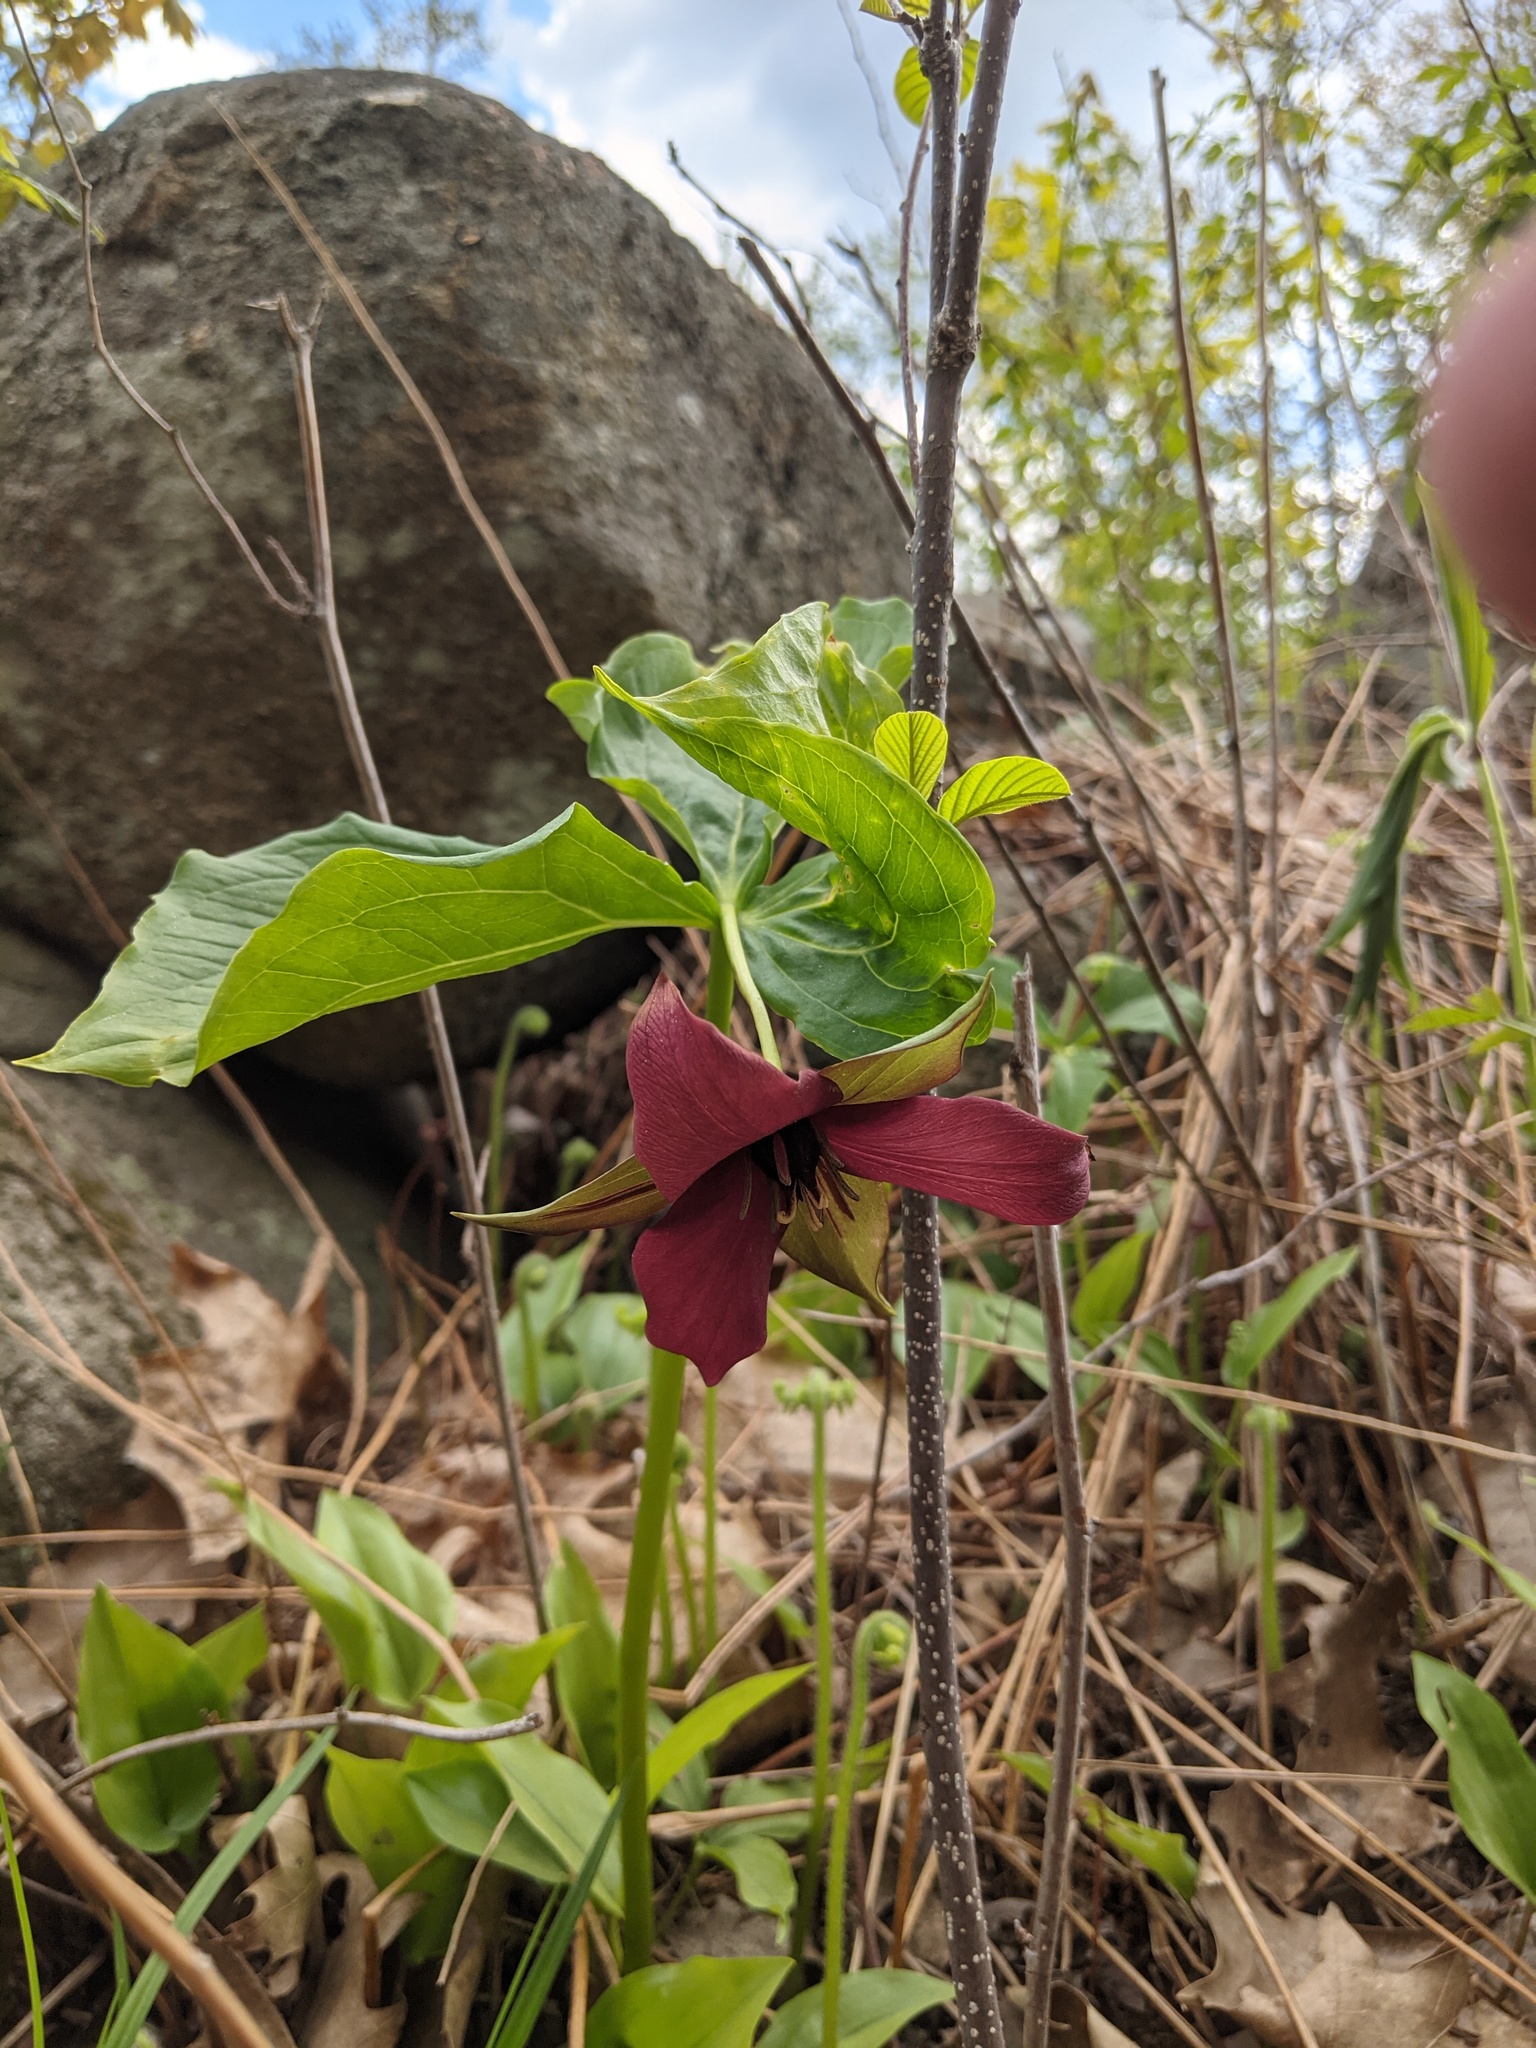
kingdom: Plantae
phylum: Tracheophyta
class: Liliopsida
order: Liliales
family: Melanthiaceae
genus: Trillium
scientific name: Trillium erectum
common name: Purple trillium
